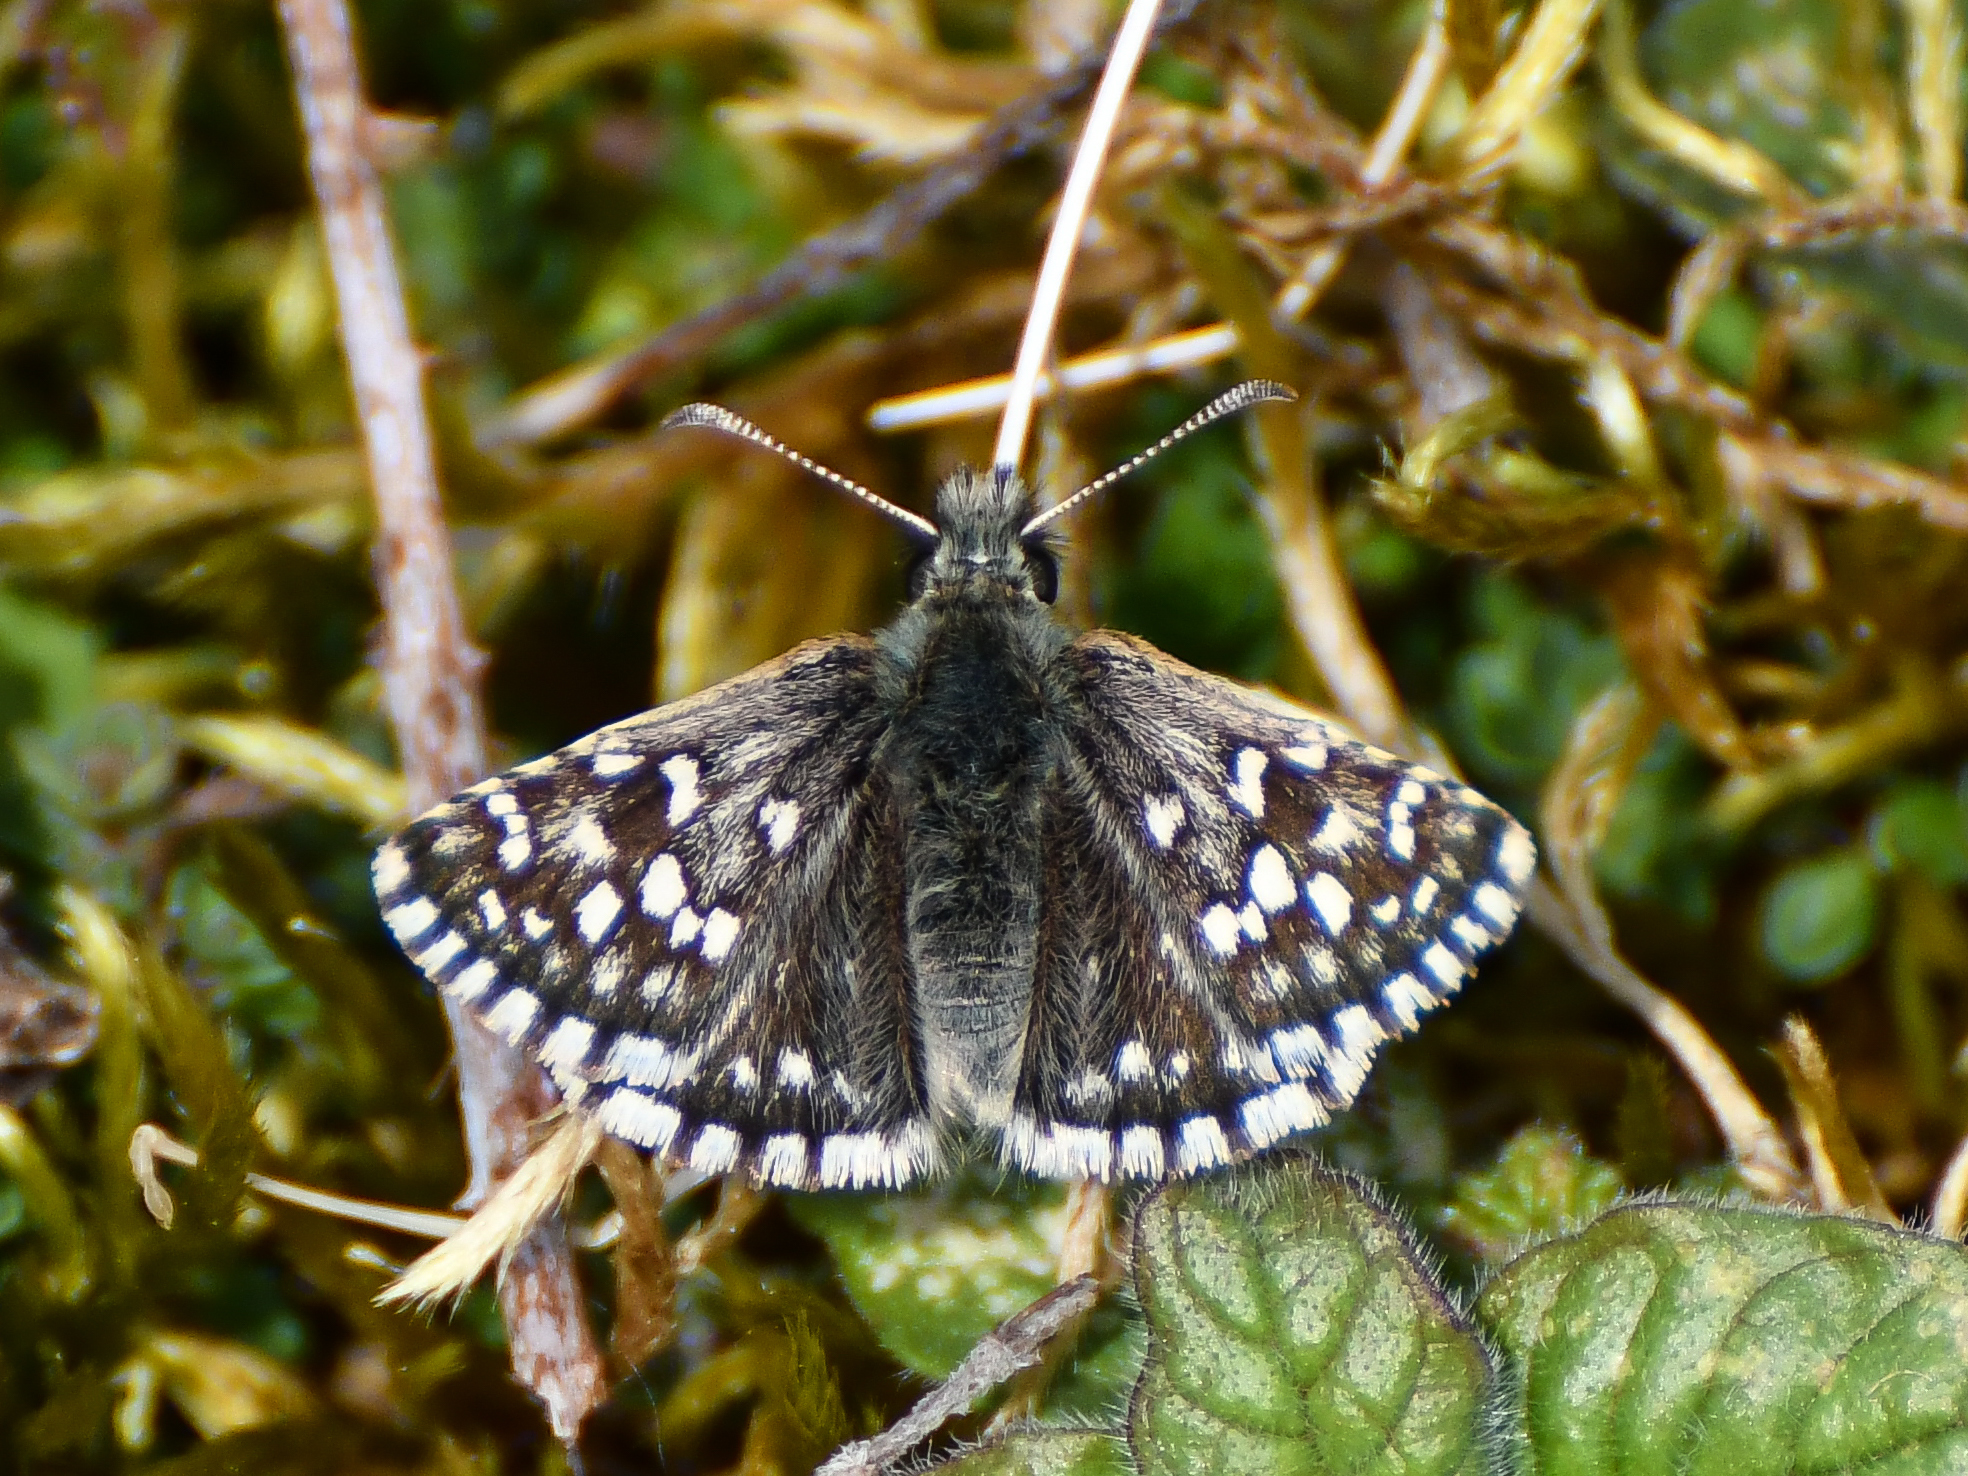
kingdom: Animalia
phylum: Arthropoda
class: Insecta
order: Lepidoptera
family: Hesperiidae
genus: Pyrgus
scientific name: Pyrgus malvae
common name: Grizzled skipper
